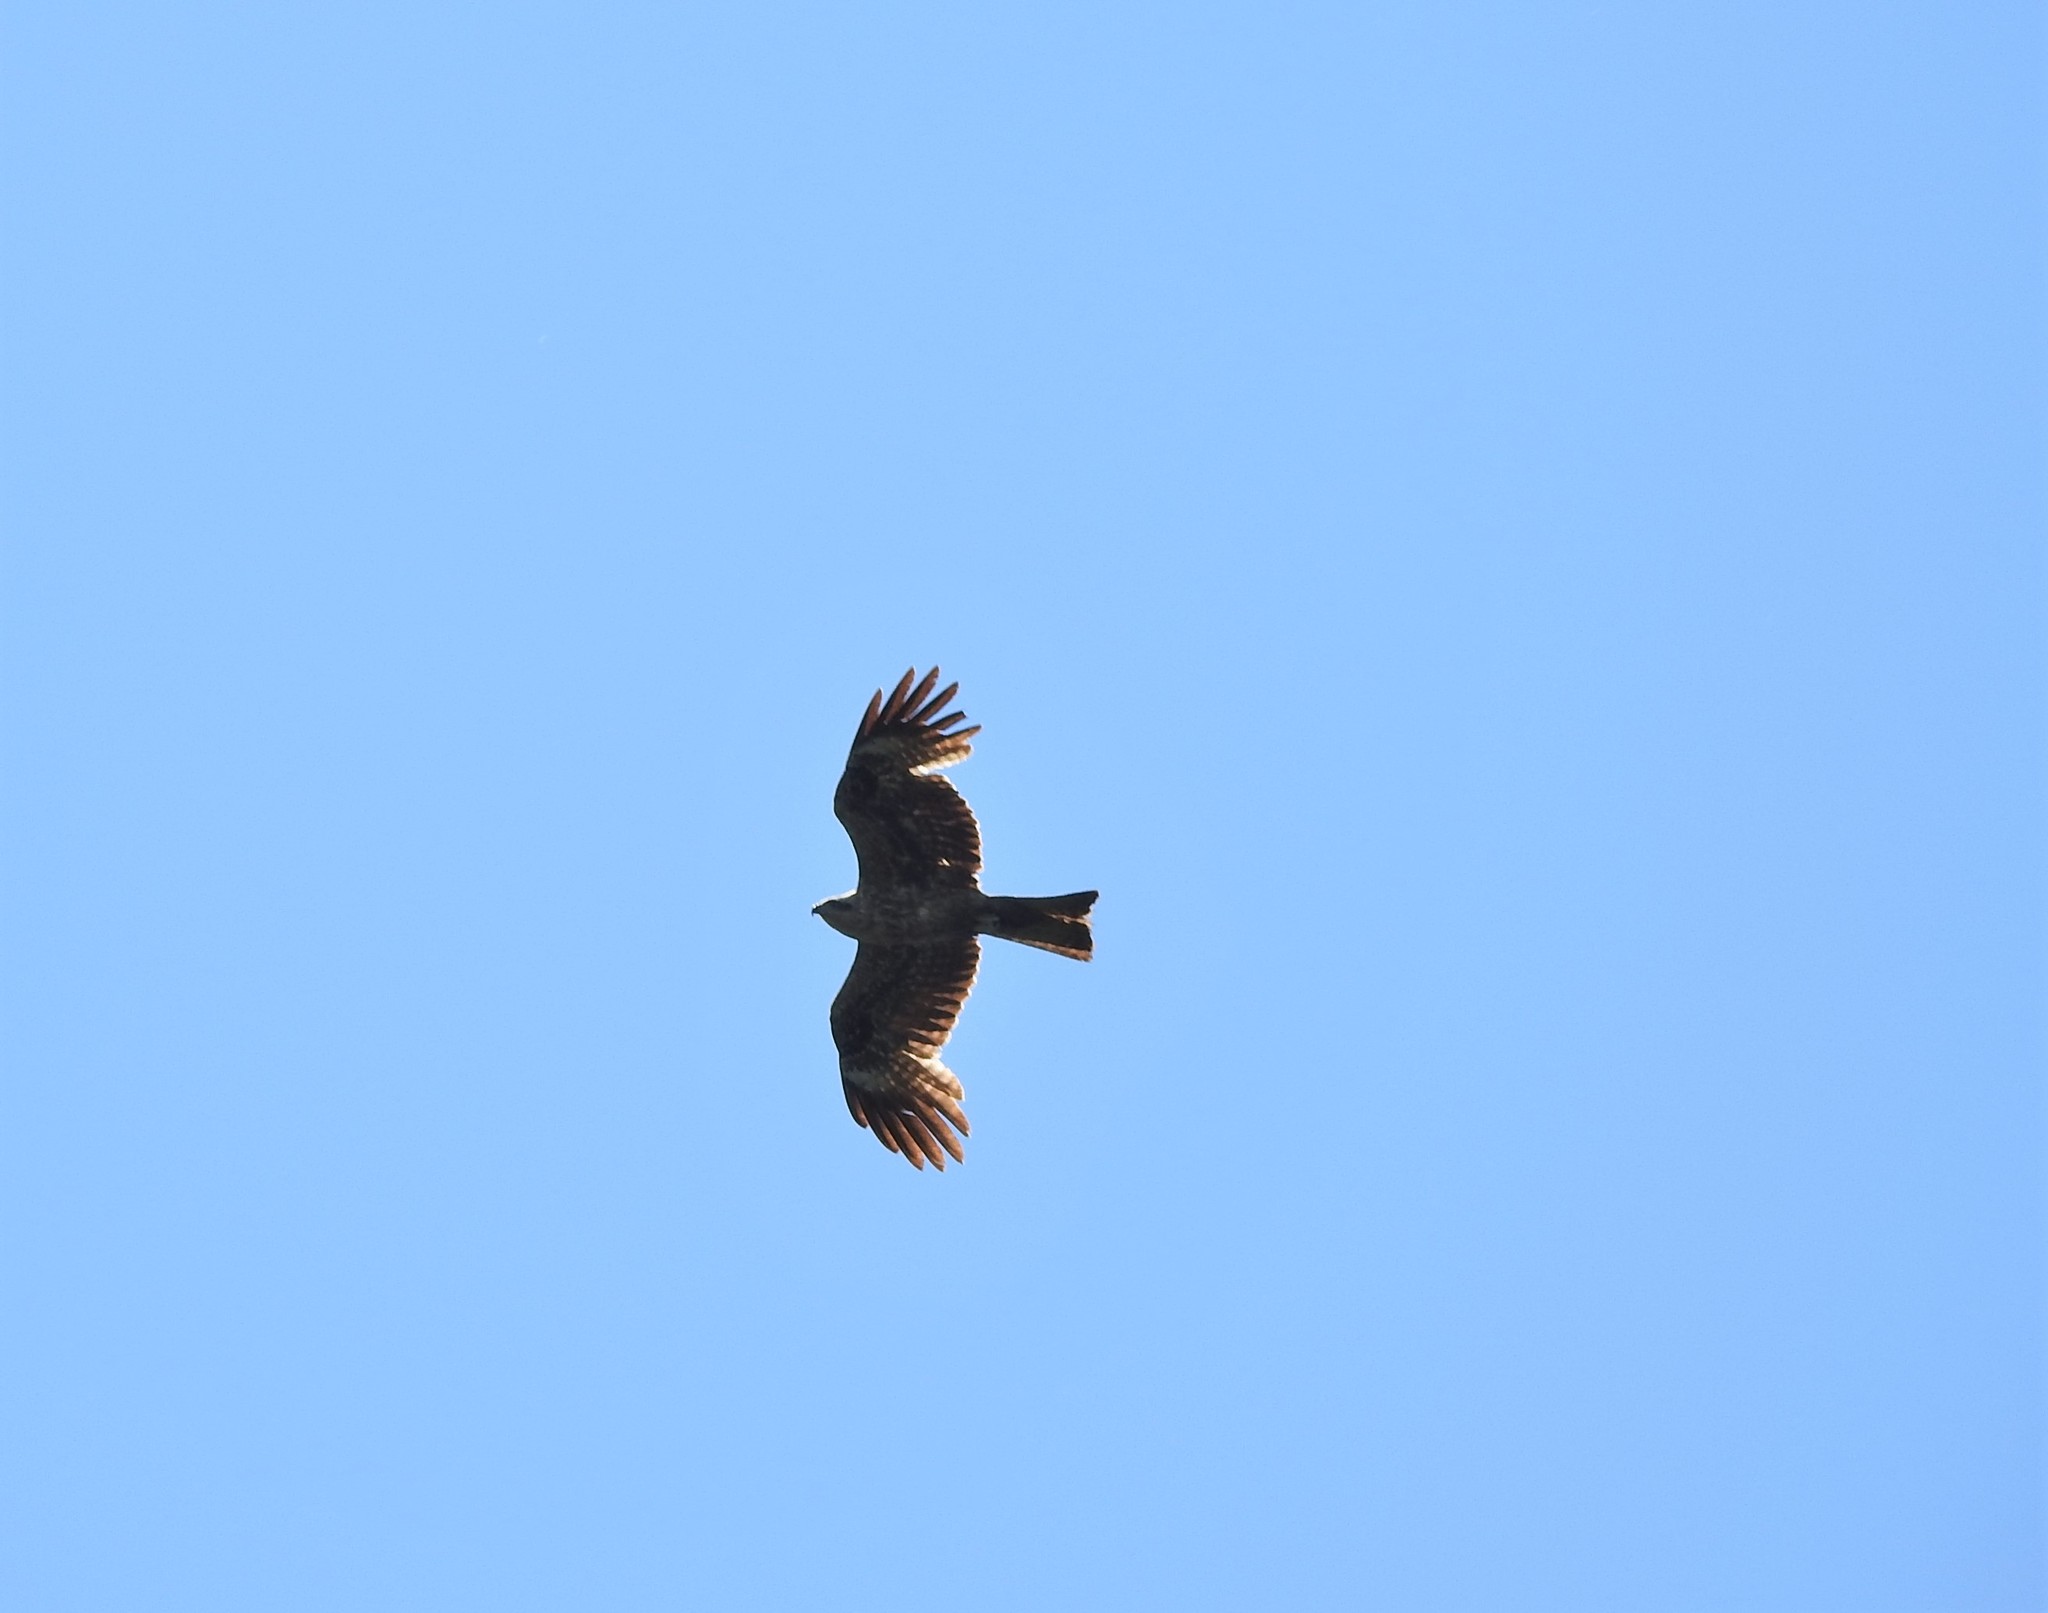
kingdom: Animalia
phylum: Chordata
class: Aves
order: Accipitriformes
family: Accipitridae
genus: Milvus
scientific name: Milvus migrans
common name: Black kite
